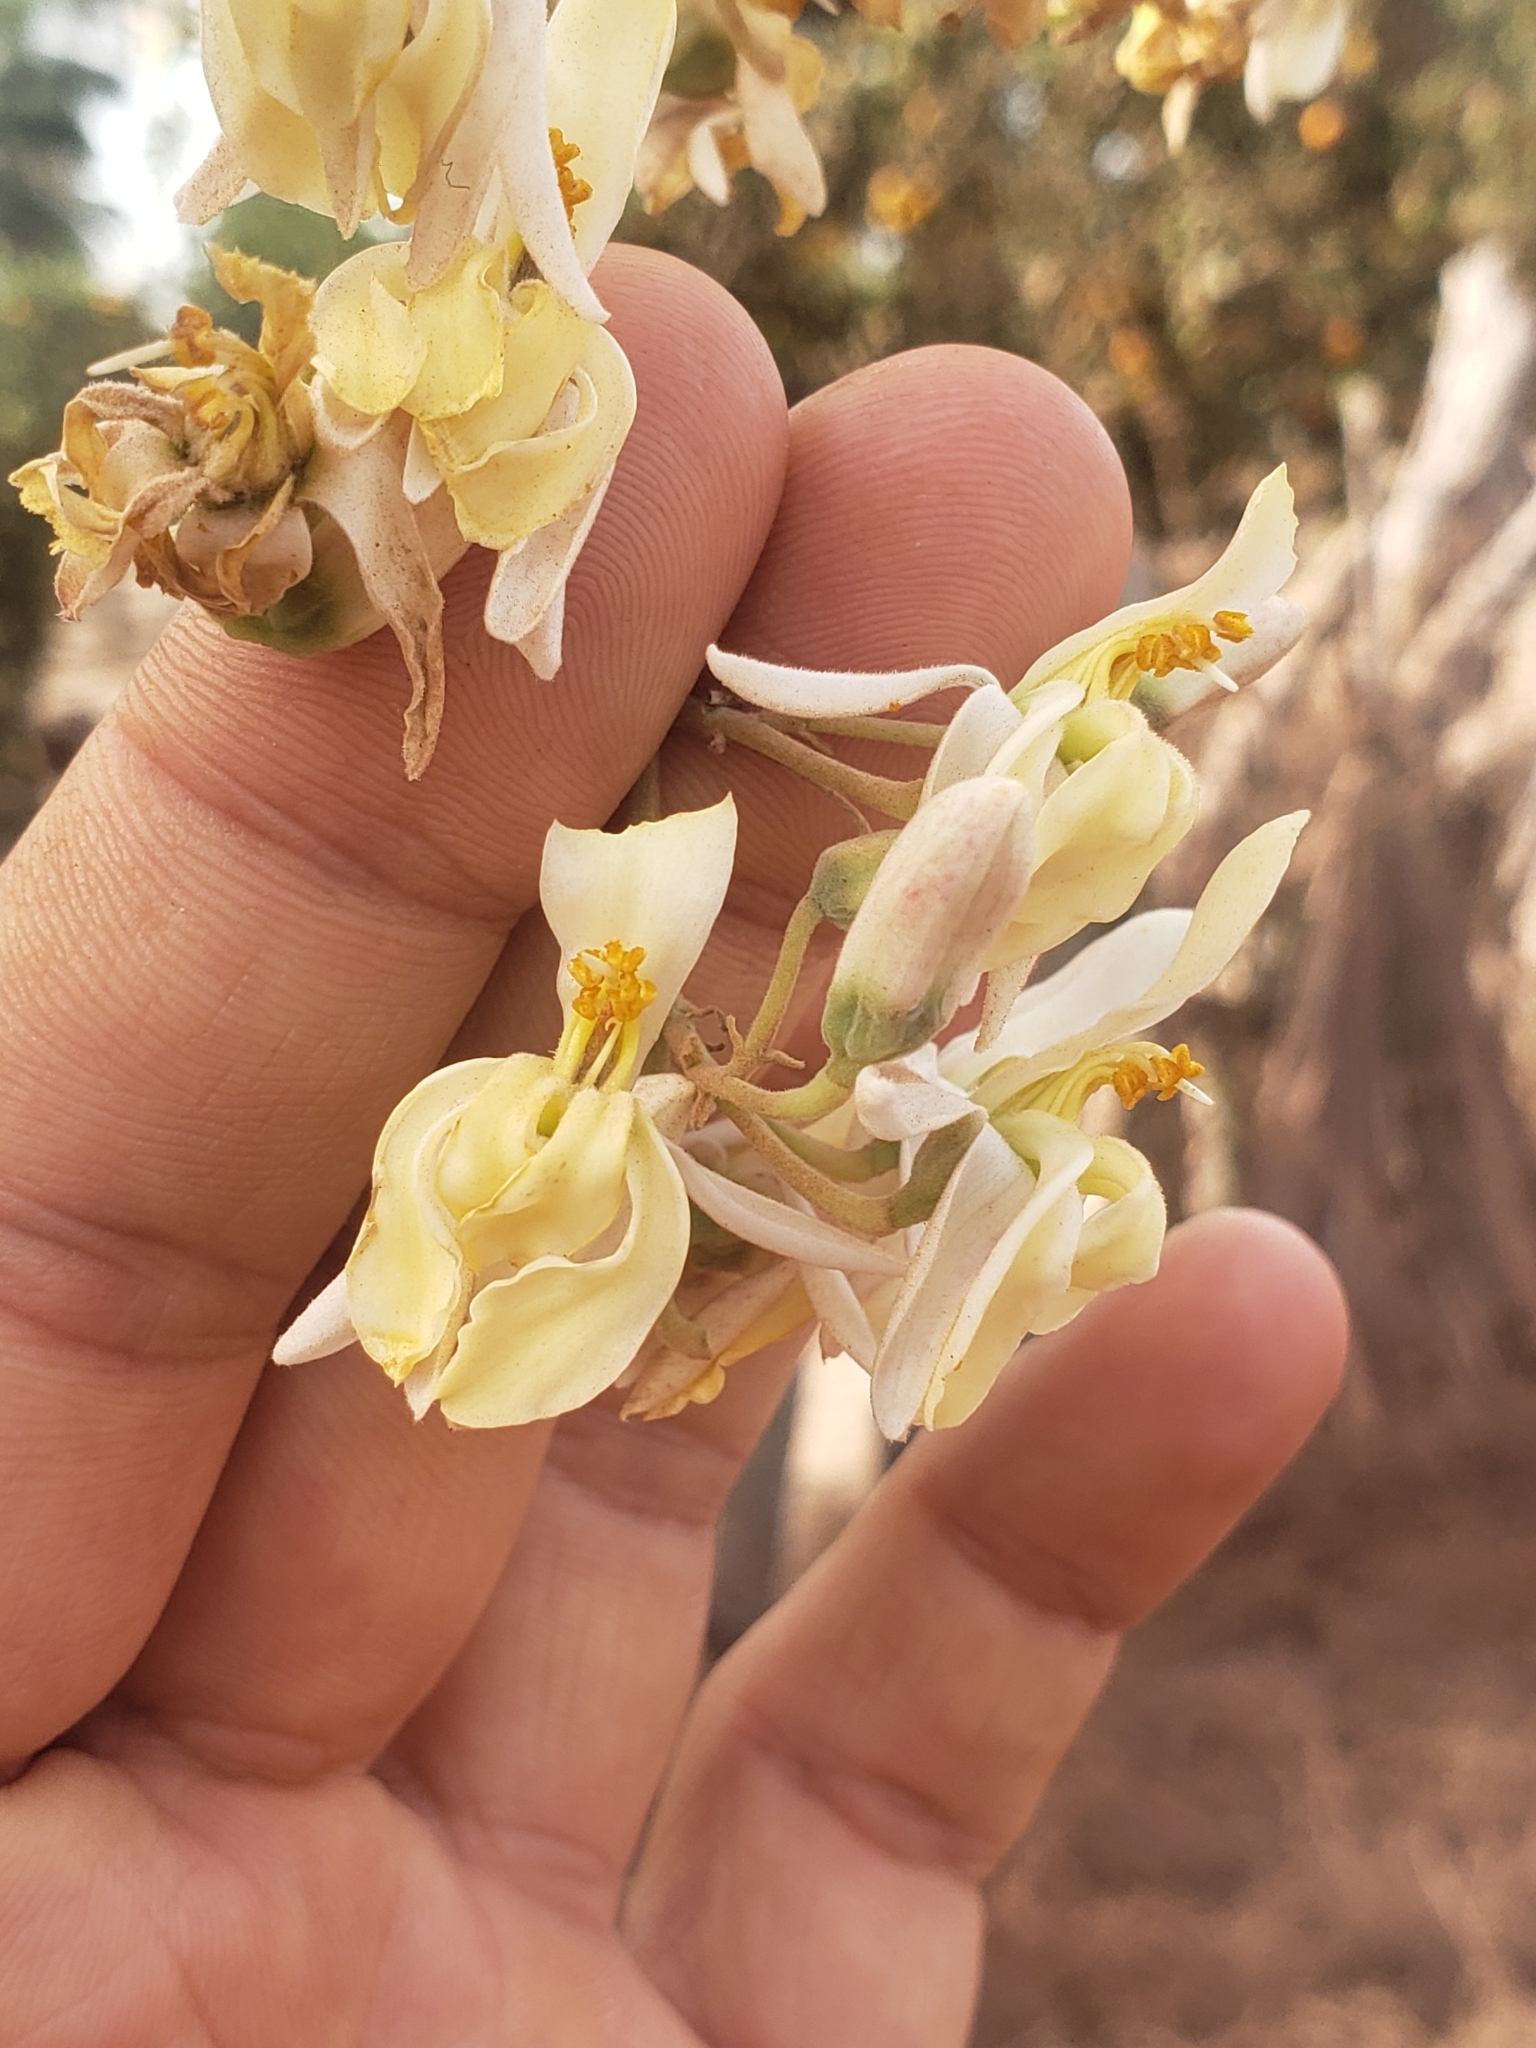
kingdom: Plantae
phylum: Tracheophyta
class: Magnoliopsida
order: Brassicales
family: Moringaceae
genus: Moringa
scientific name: Moringa oleifera
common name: Horseradish-tree
